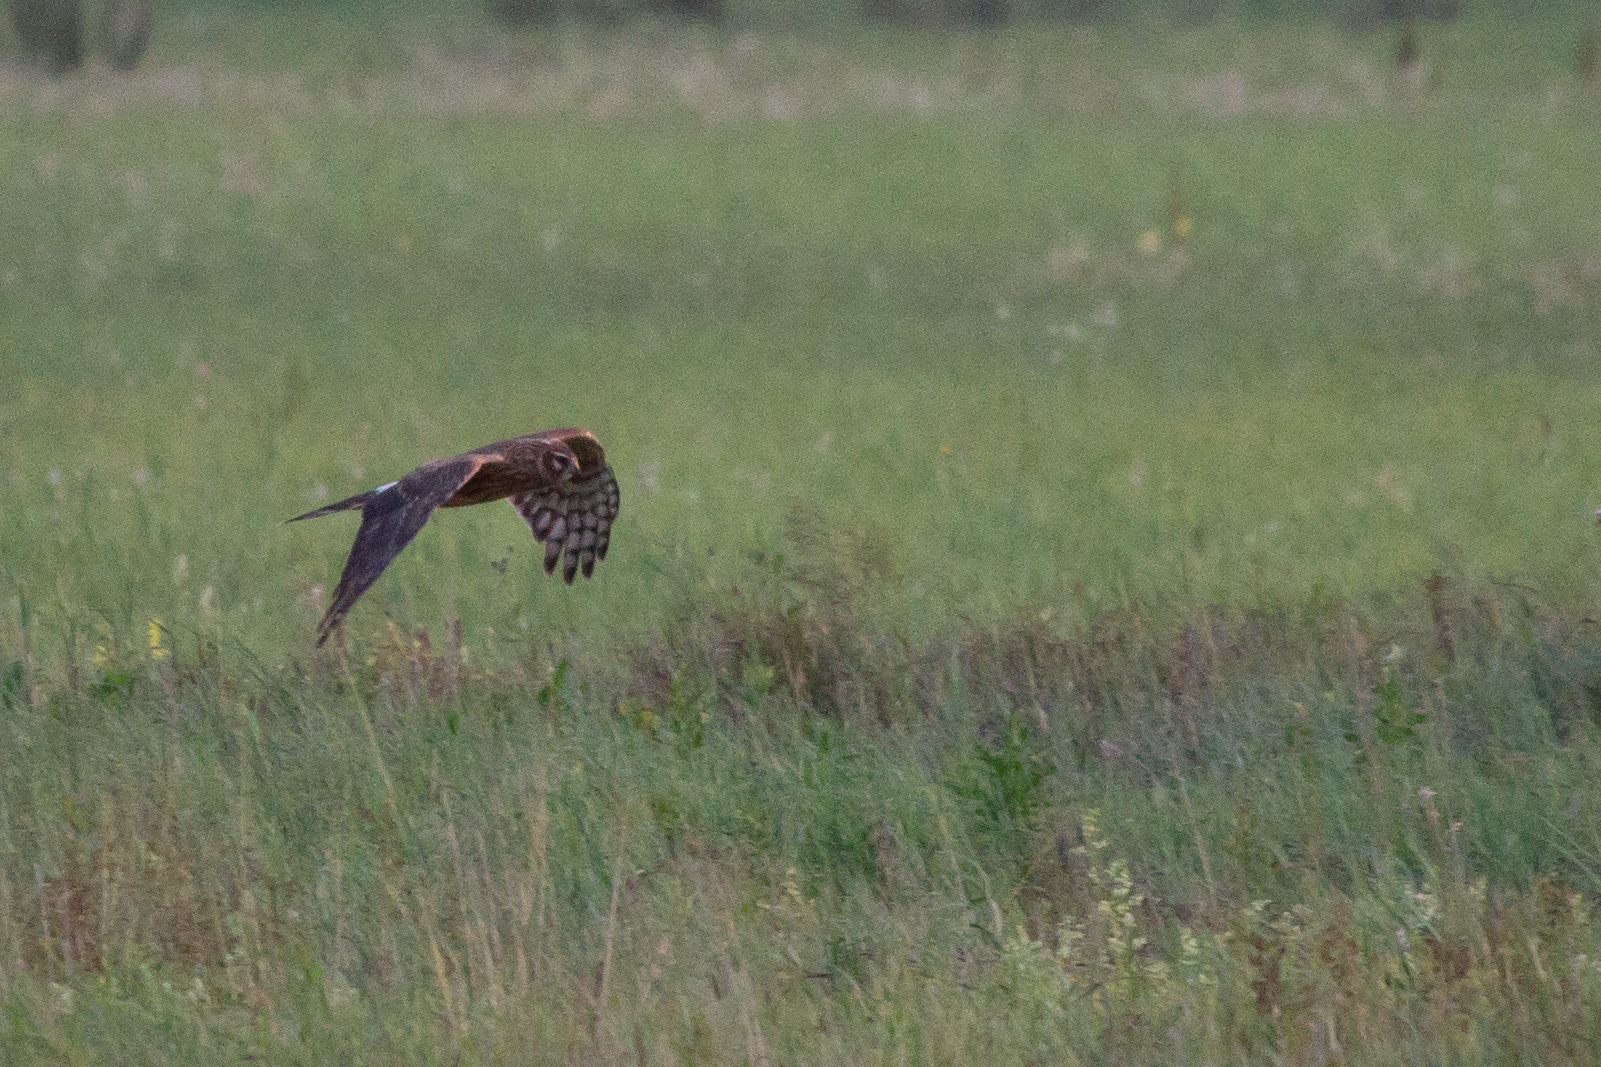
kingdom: Animalia
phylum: Chordata
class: Aves
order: Accipitriformes
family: Accipitridae
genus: Circus
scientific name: Circus cyaneus
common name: Hen harrier
